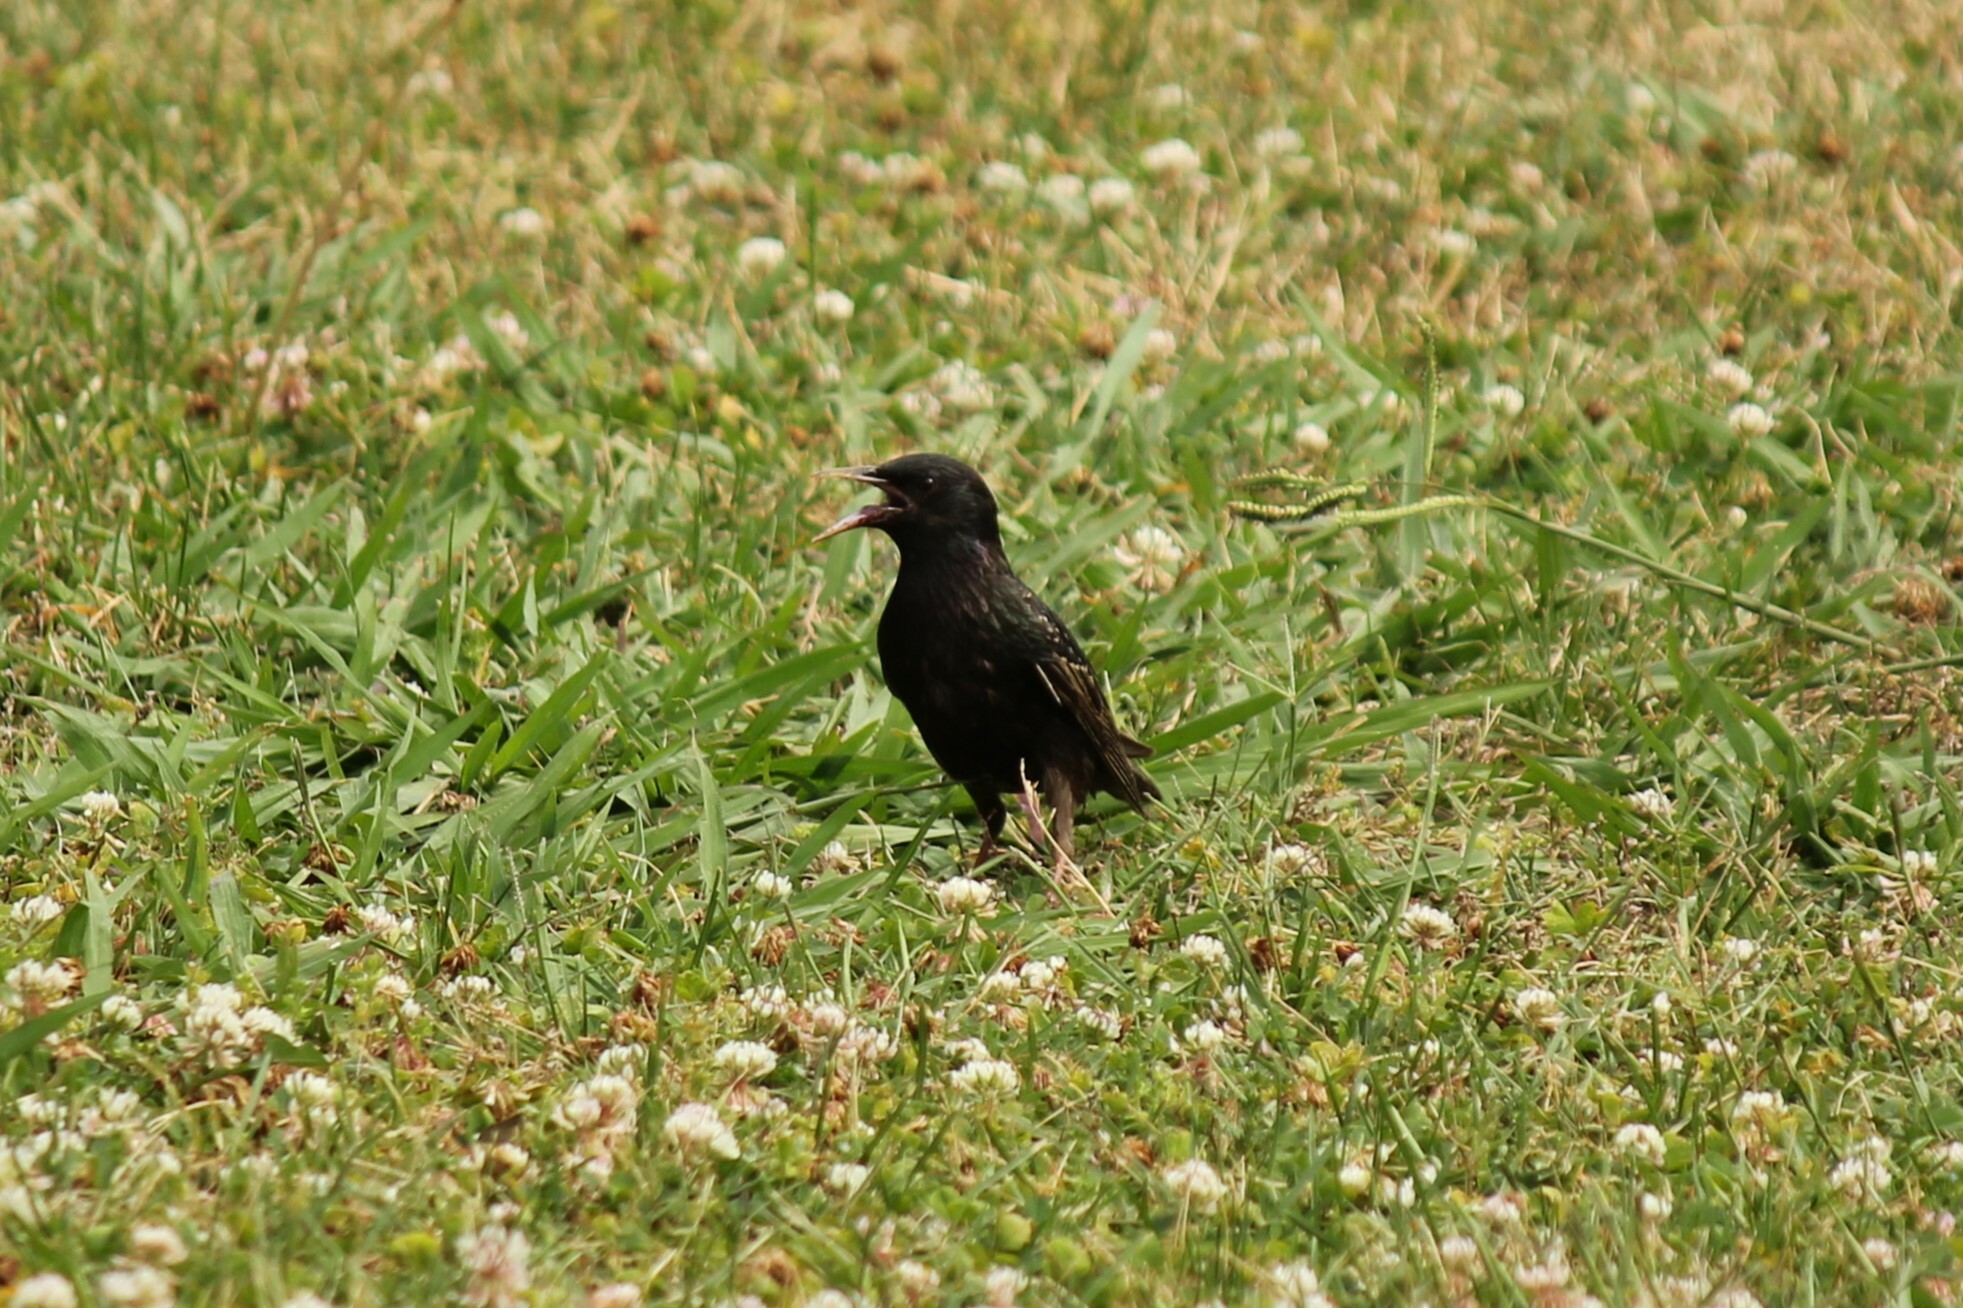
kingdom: Animalia
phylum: Chordata
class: Aves
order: Passeriformes
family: Sturnidae
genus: Sturnus
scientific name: Sturnus vulgaris
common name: Common starling
